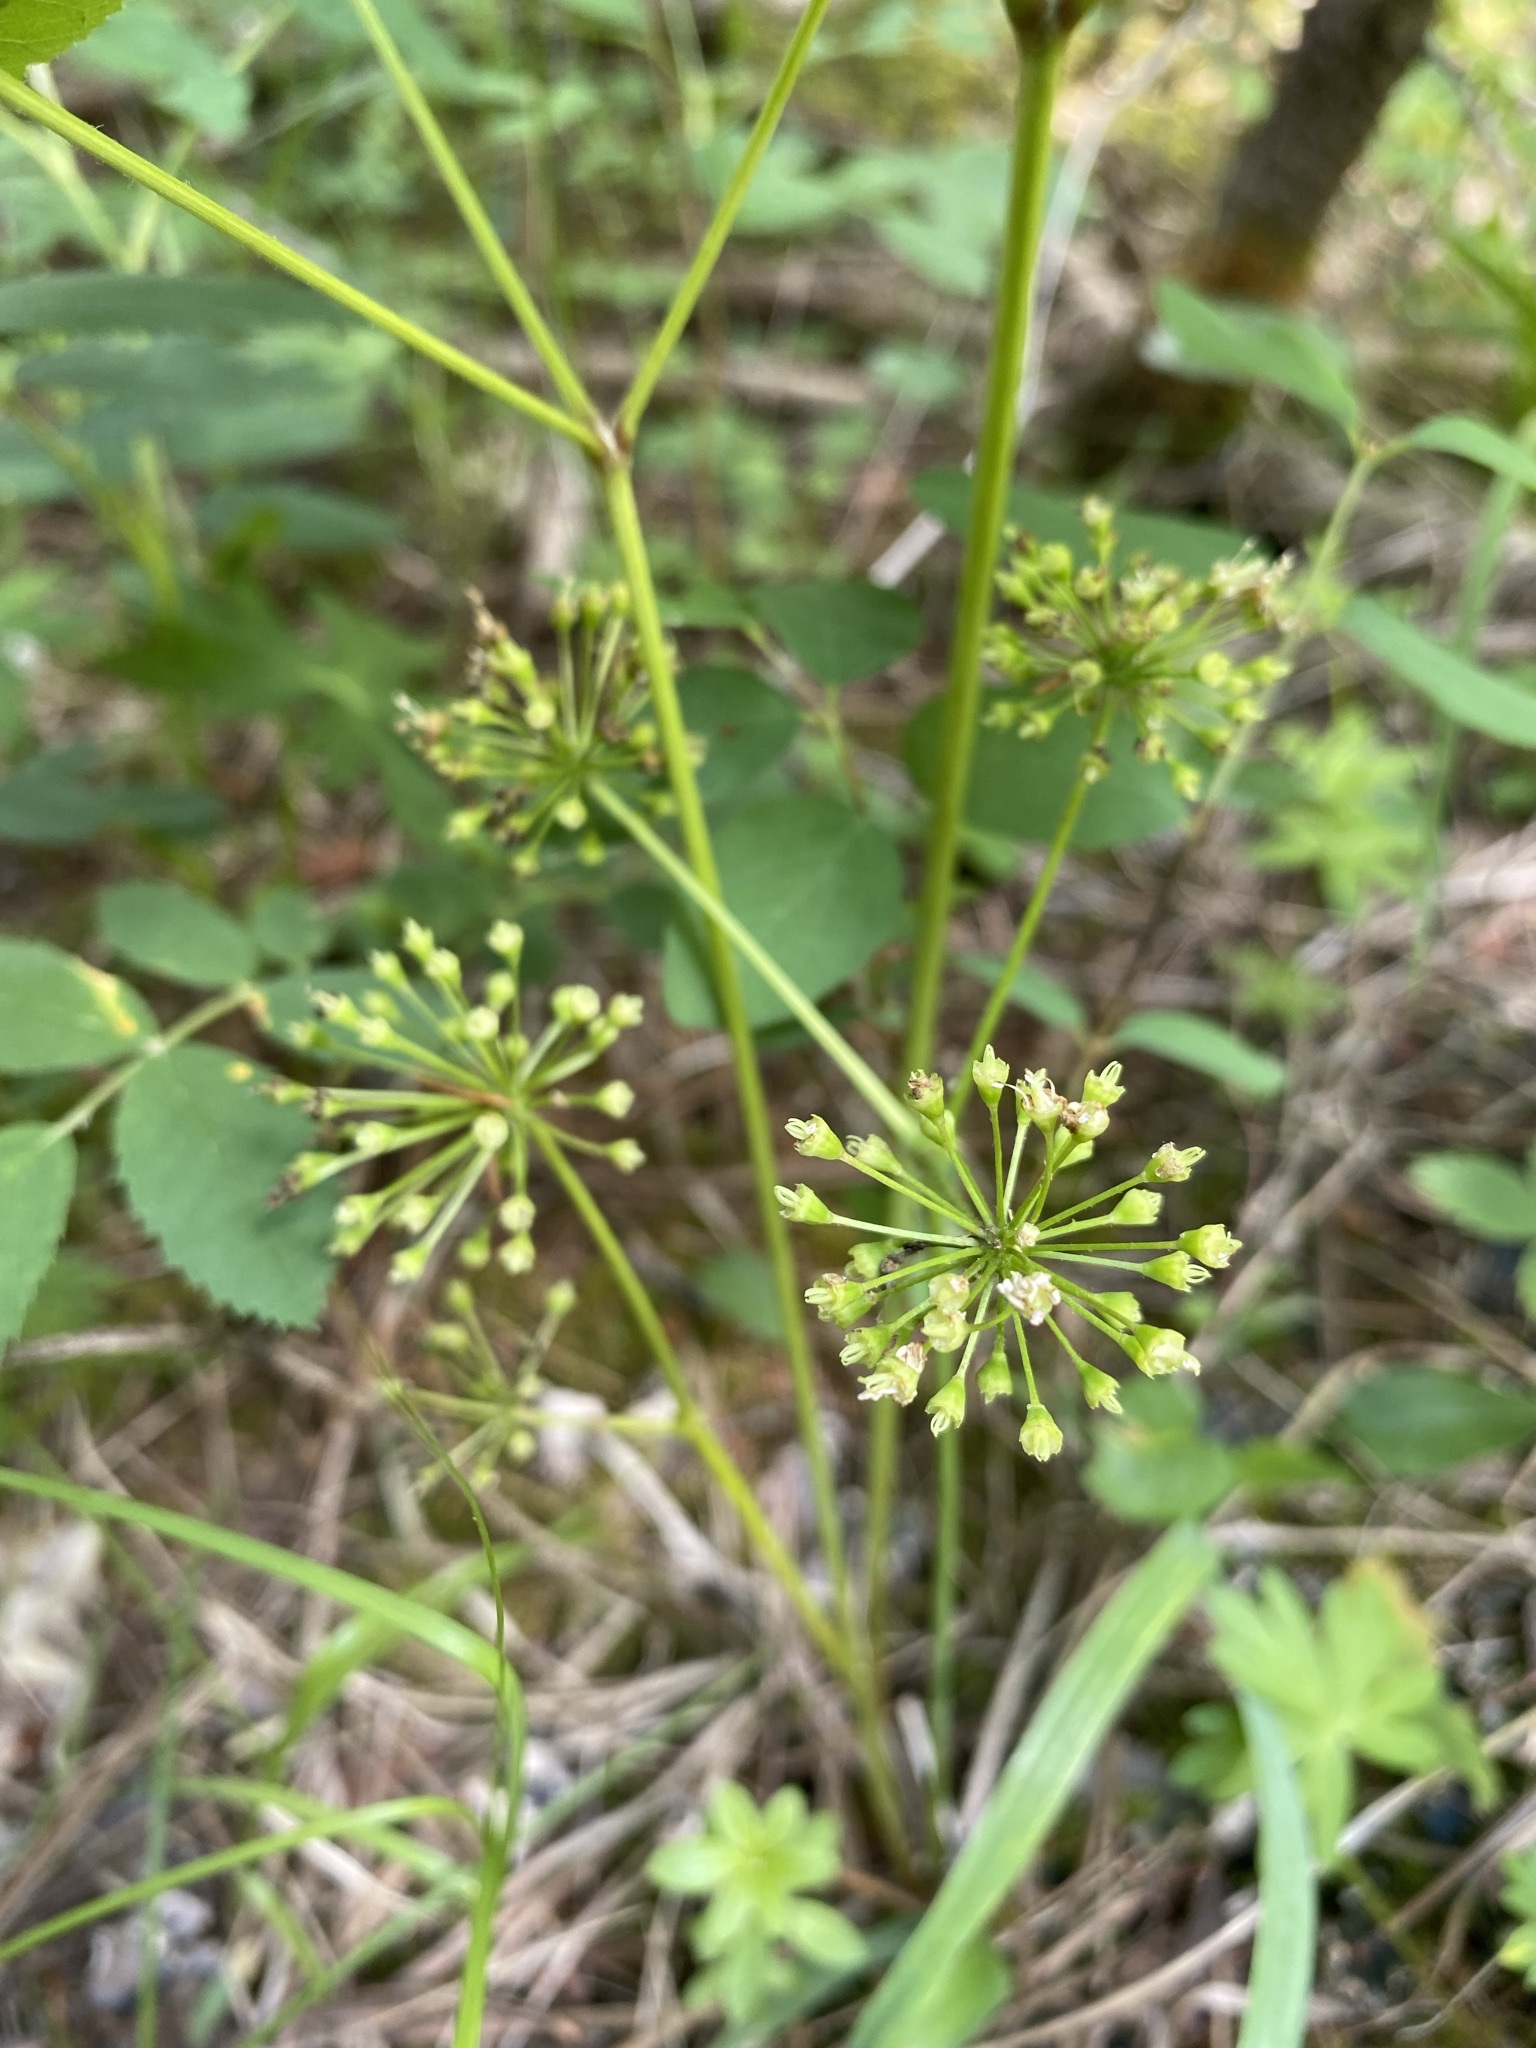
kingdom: Plantae
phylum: Tracheophyta
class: Magnoliopsida
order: Apiales
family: Araliaceae
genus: Aralia
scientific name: Aralia nudicaulis
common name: Wild sarsaparilla
